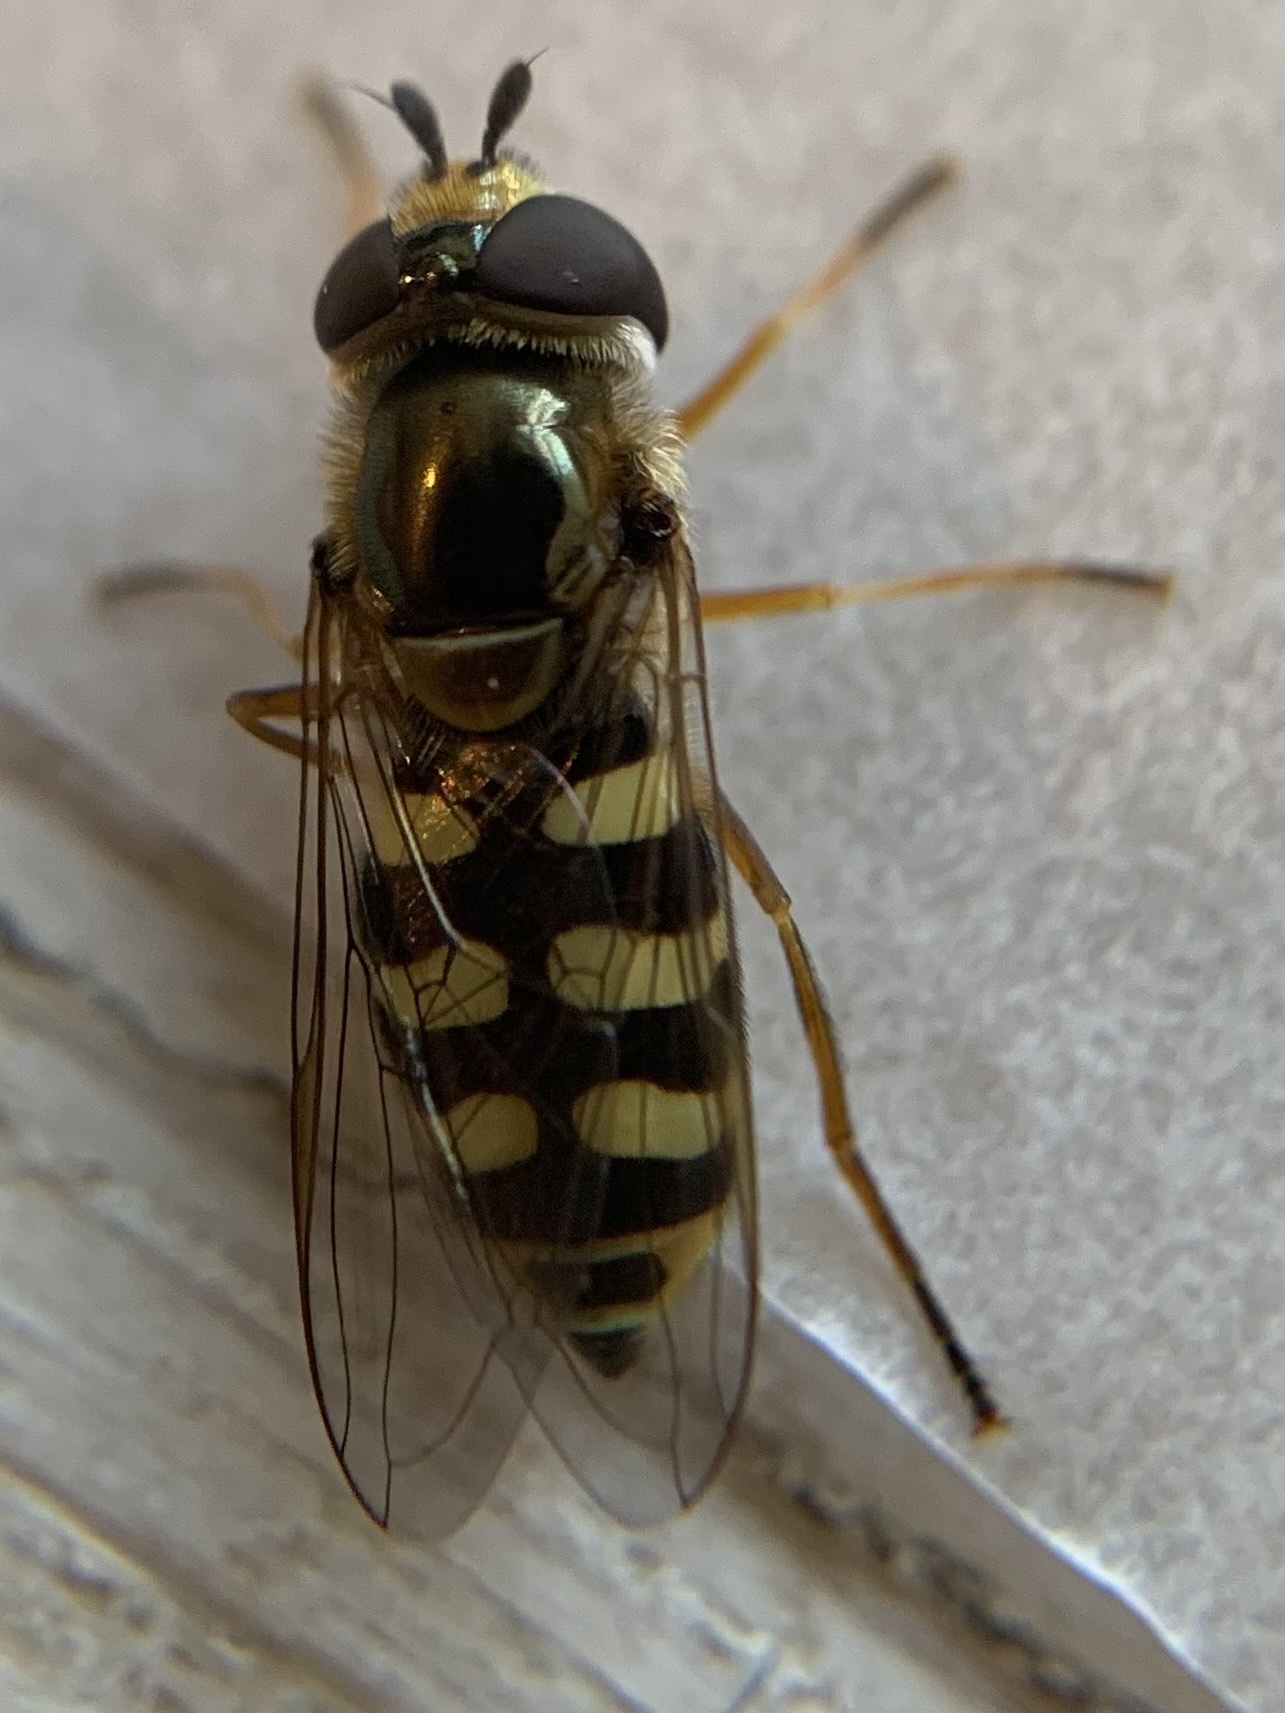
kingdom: Animalia
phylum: Arthropoda
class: Insecta
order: Diptera
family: Syrphidae
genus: Eupeodes
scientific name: Eupeodes corollae
